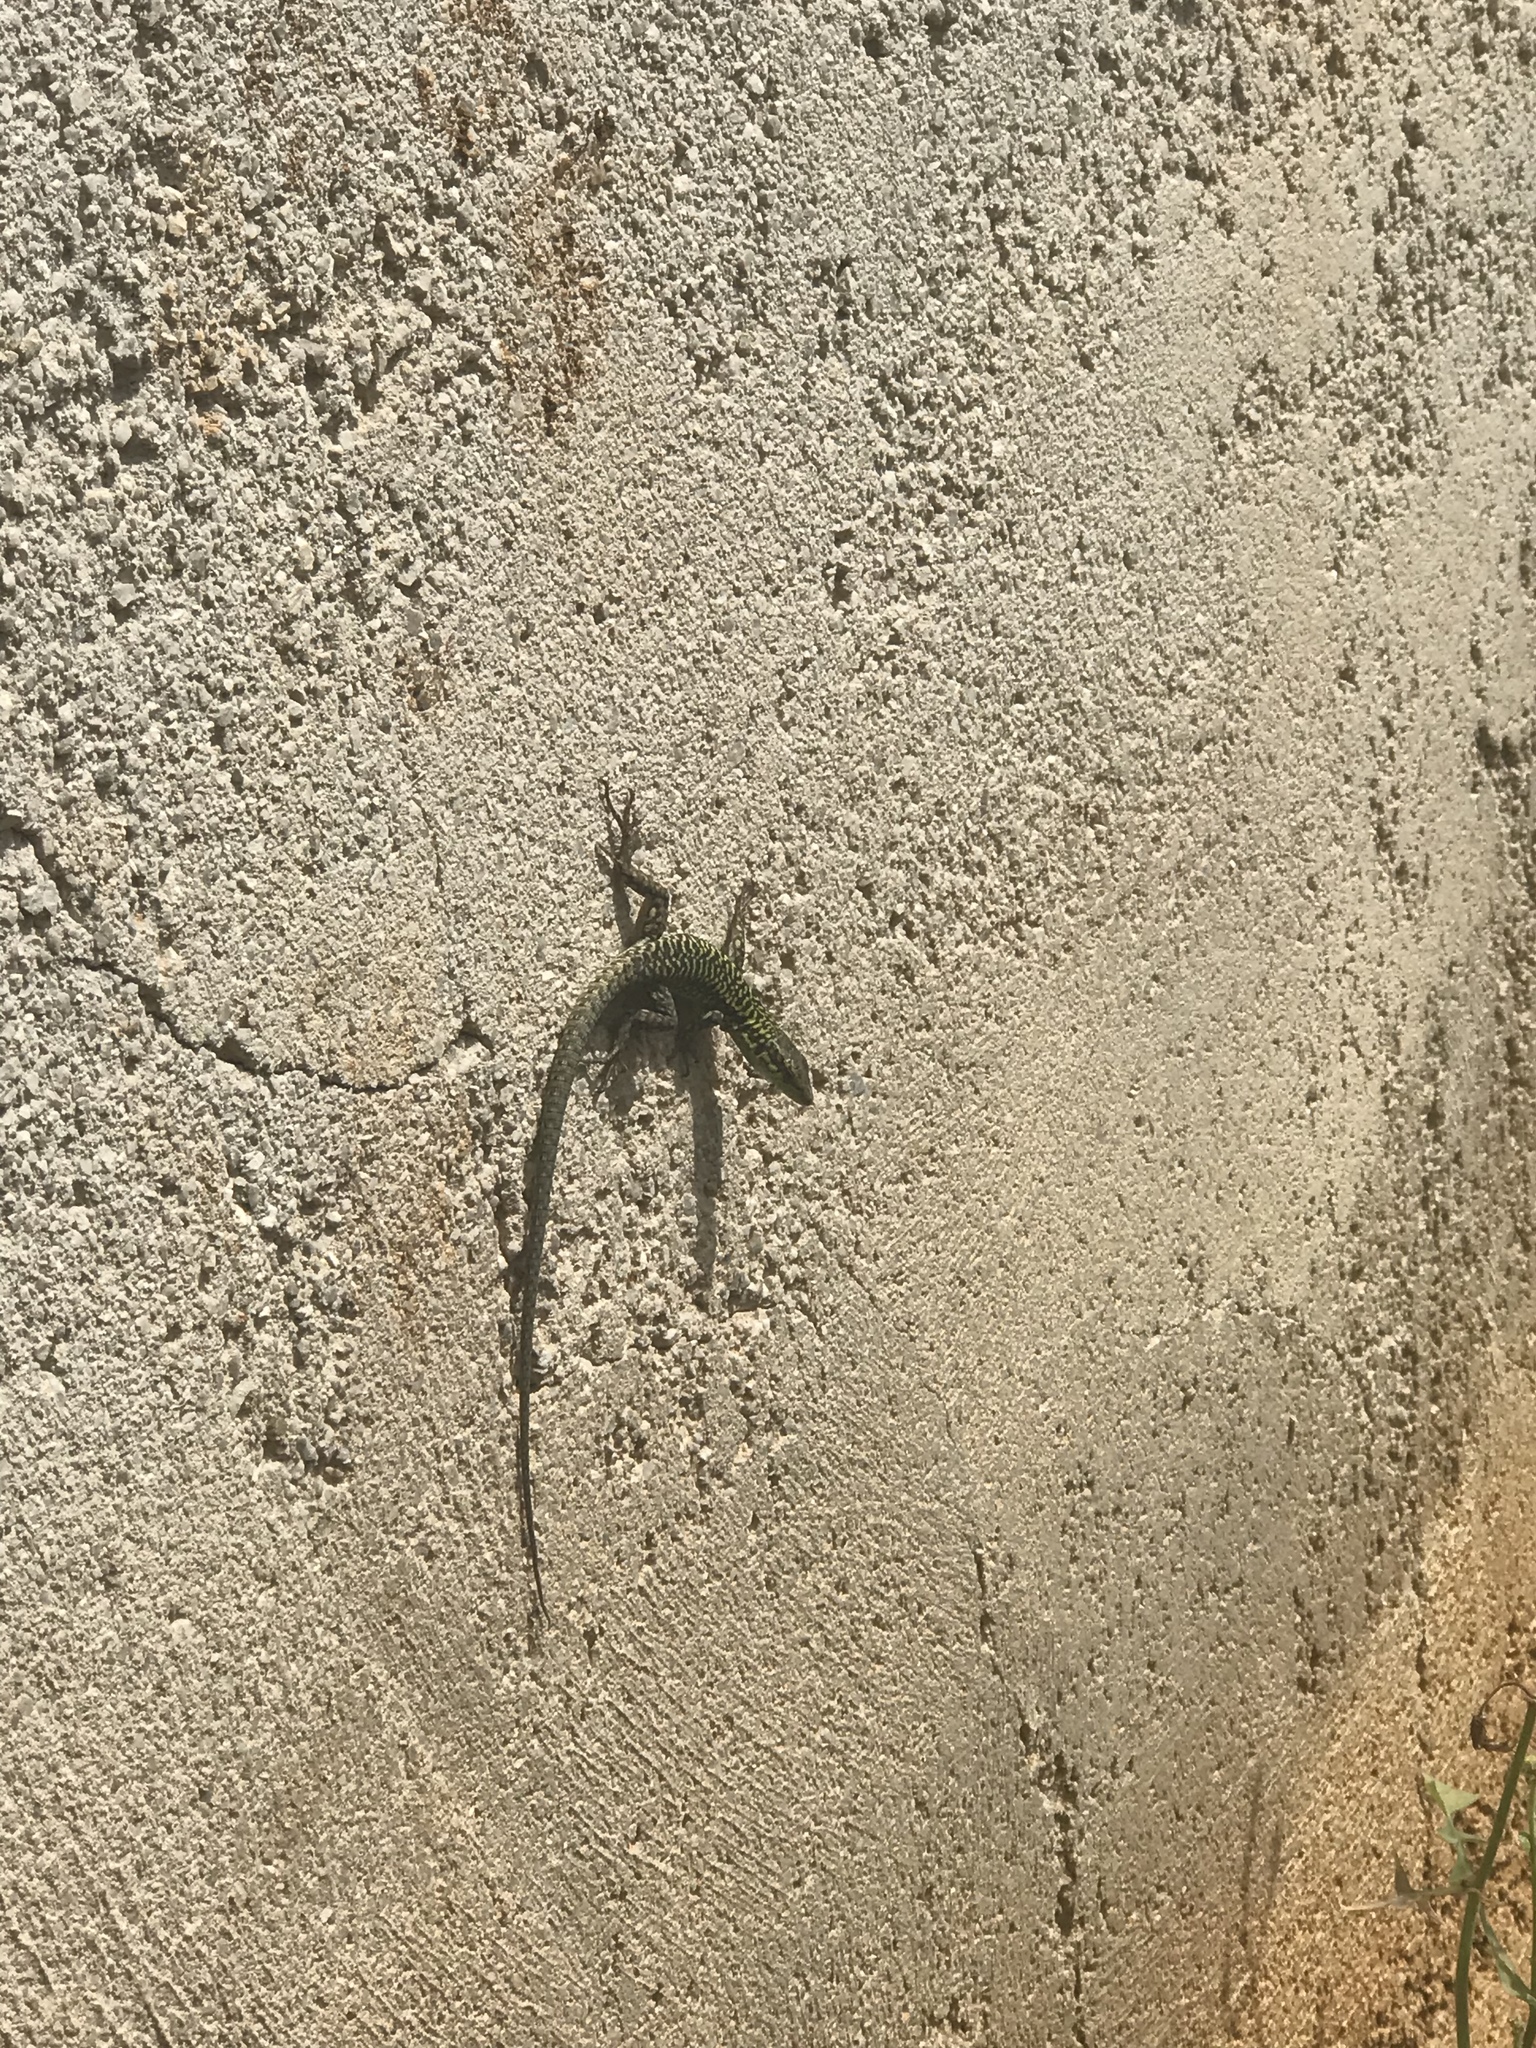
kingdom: Animalia
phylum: Chordata
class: Squamata
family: Lacertidae
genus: Podarcis
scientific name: Podarcis siculus
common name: Italian wall lizard
